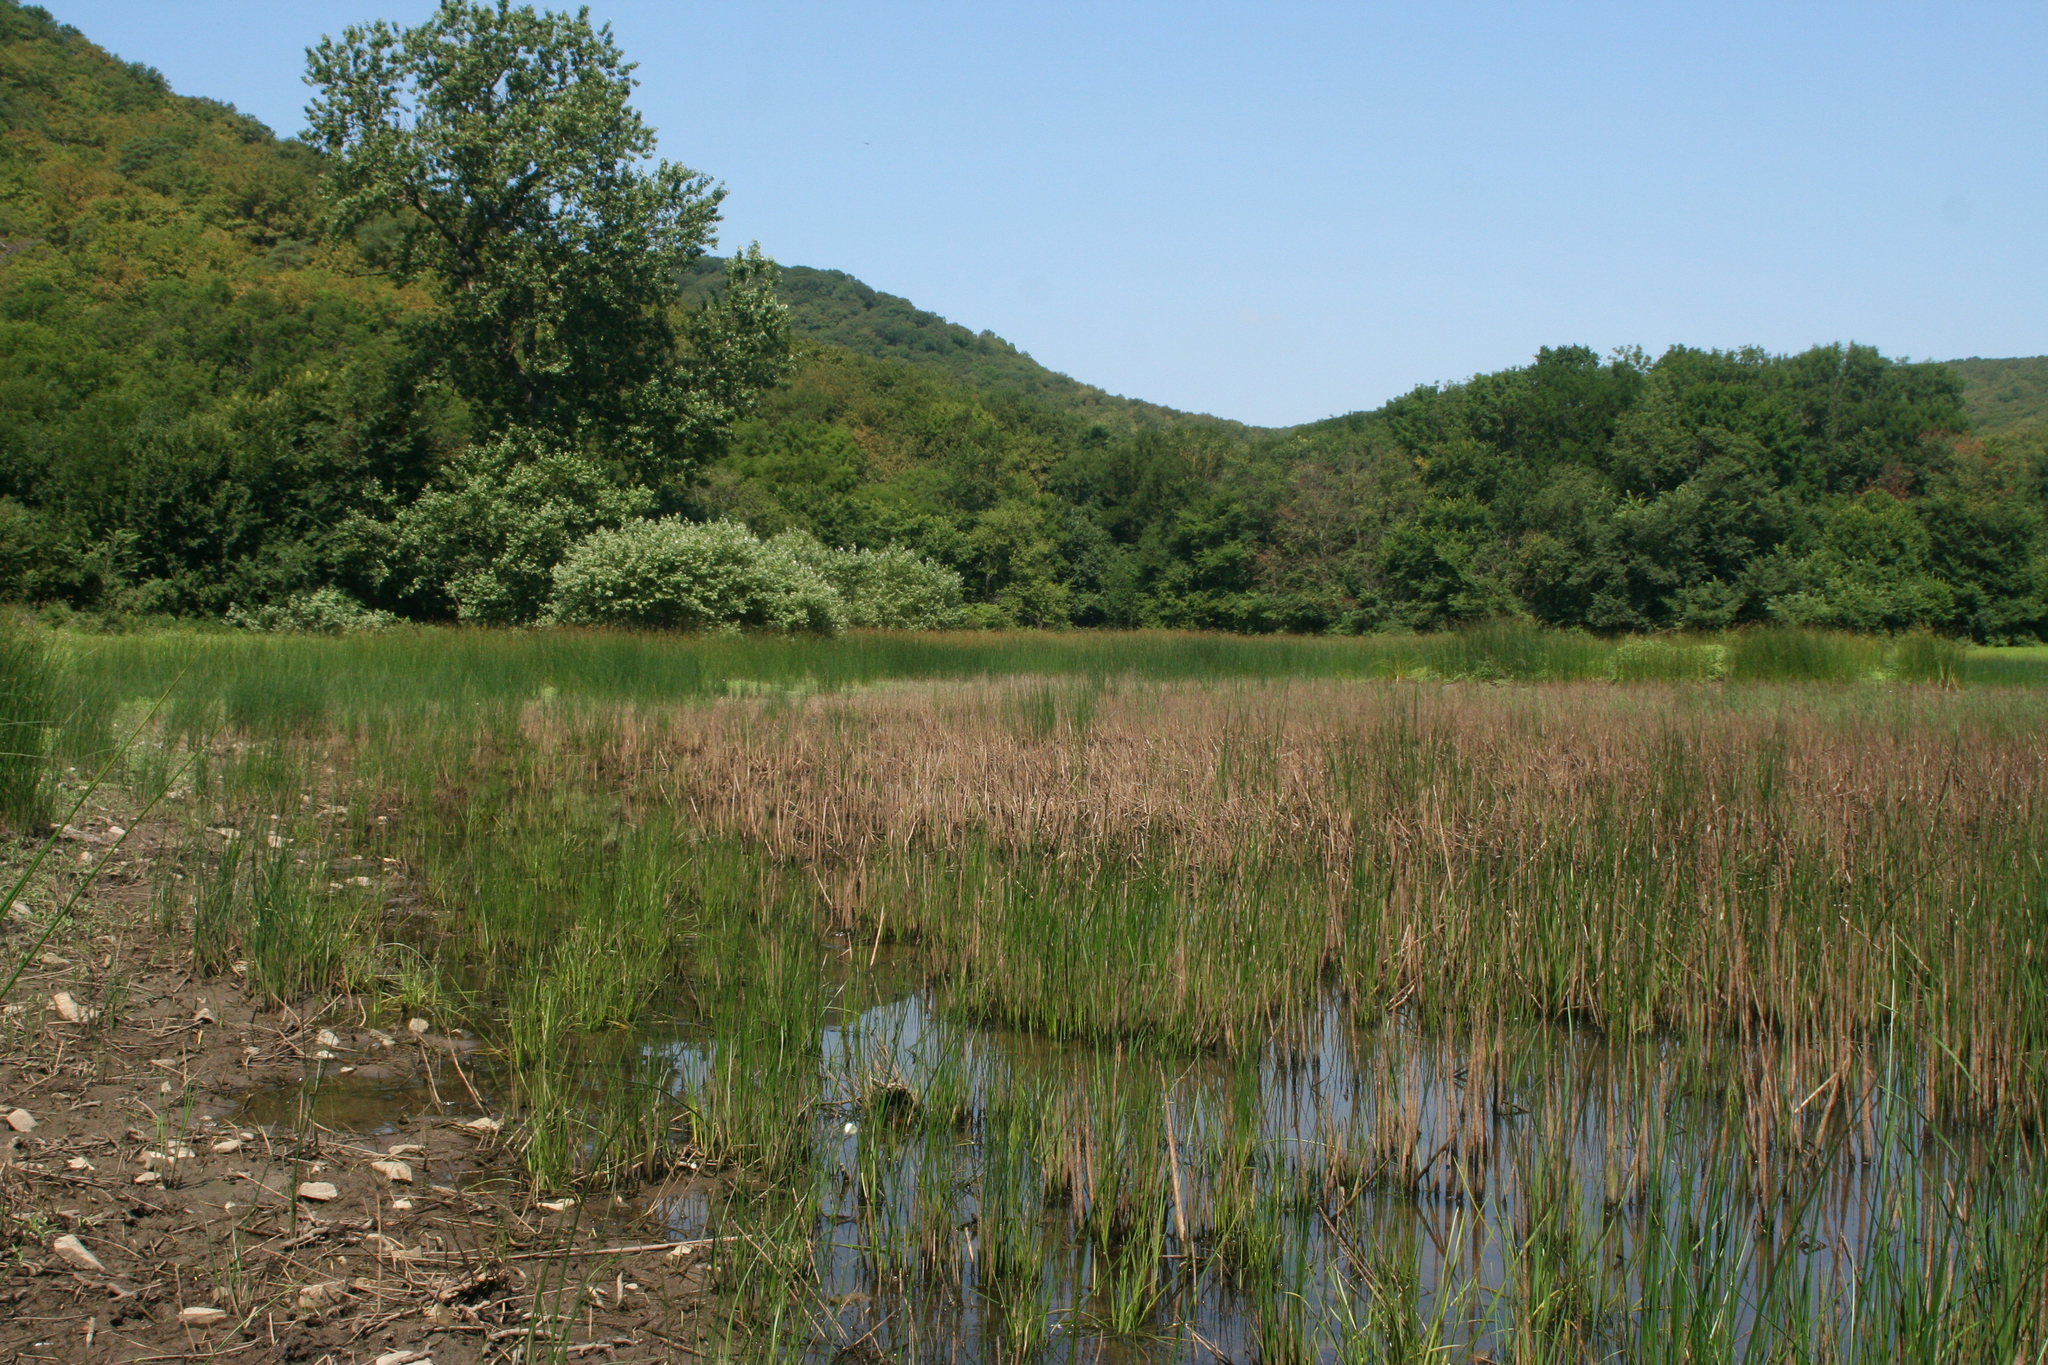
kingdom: Plantae
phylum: Tracheophyta
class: Liliopsida
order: Poales
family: Cyperaceae
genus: Eleocharis
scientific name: Eleocharis palustris
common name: Common spike-rush
